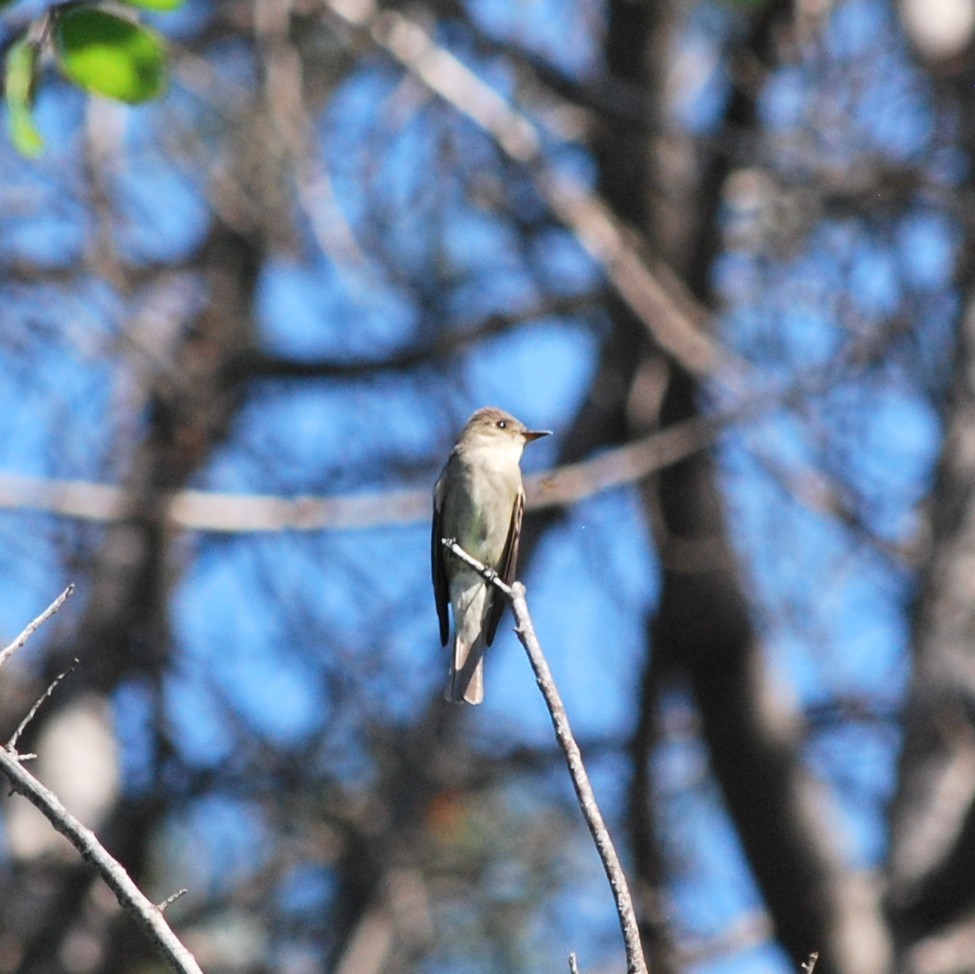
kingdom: Animalia
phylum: Chordata
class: Aves
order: Passeriformes
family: Tyrannidae
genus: Contopus
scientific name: Contopus sordidulus
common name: Western wood-pewee
